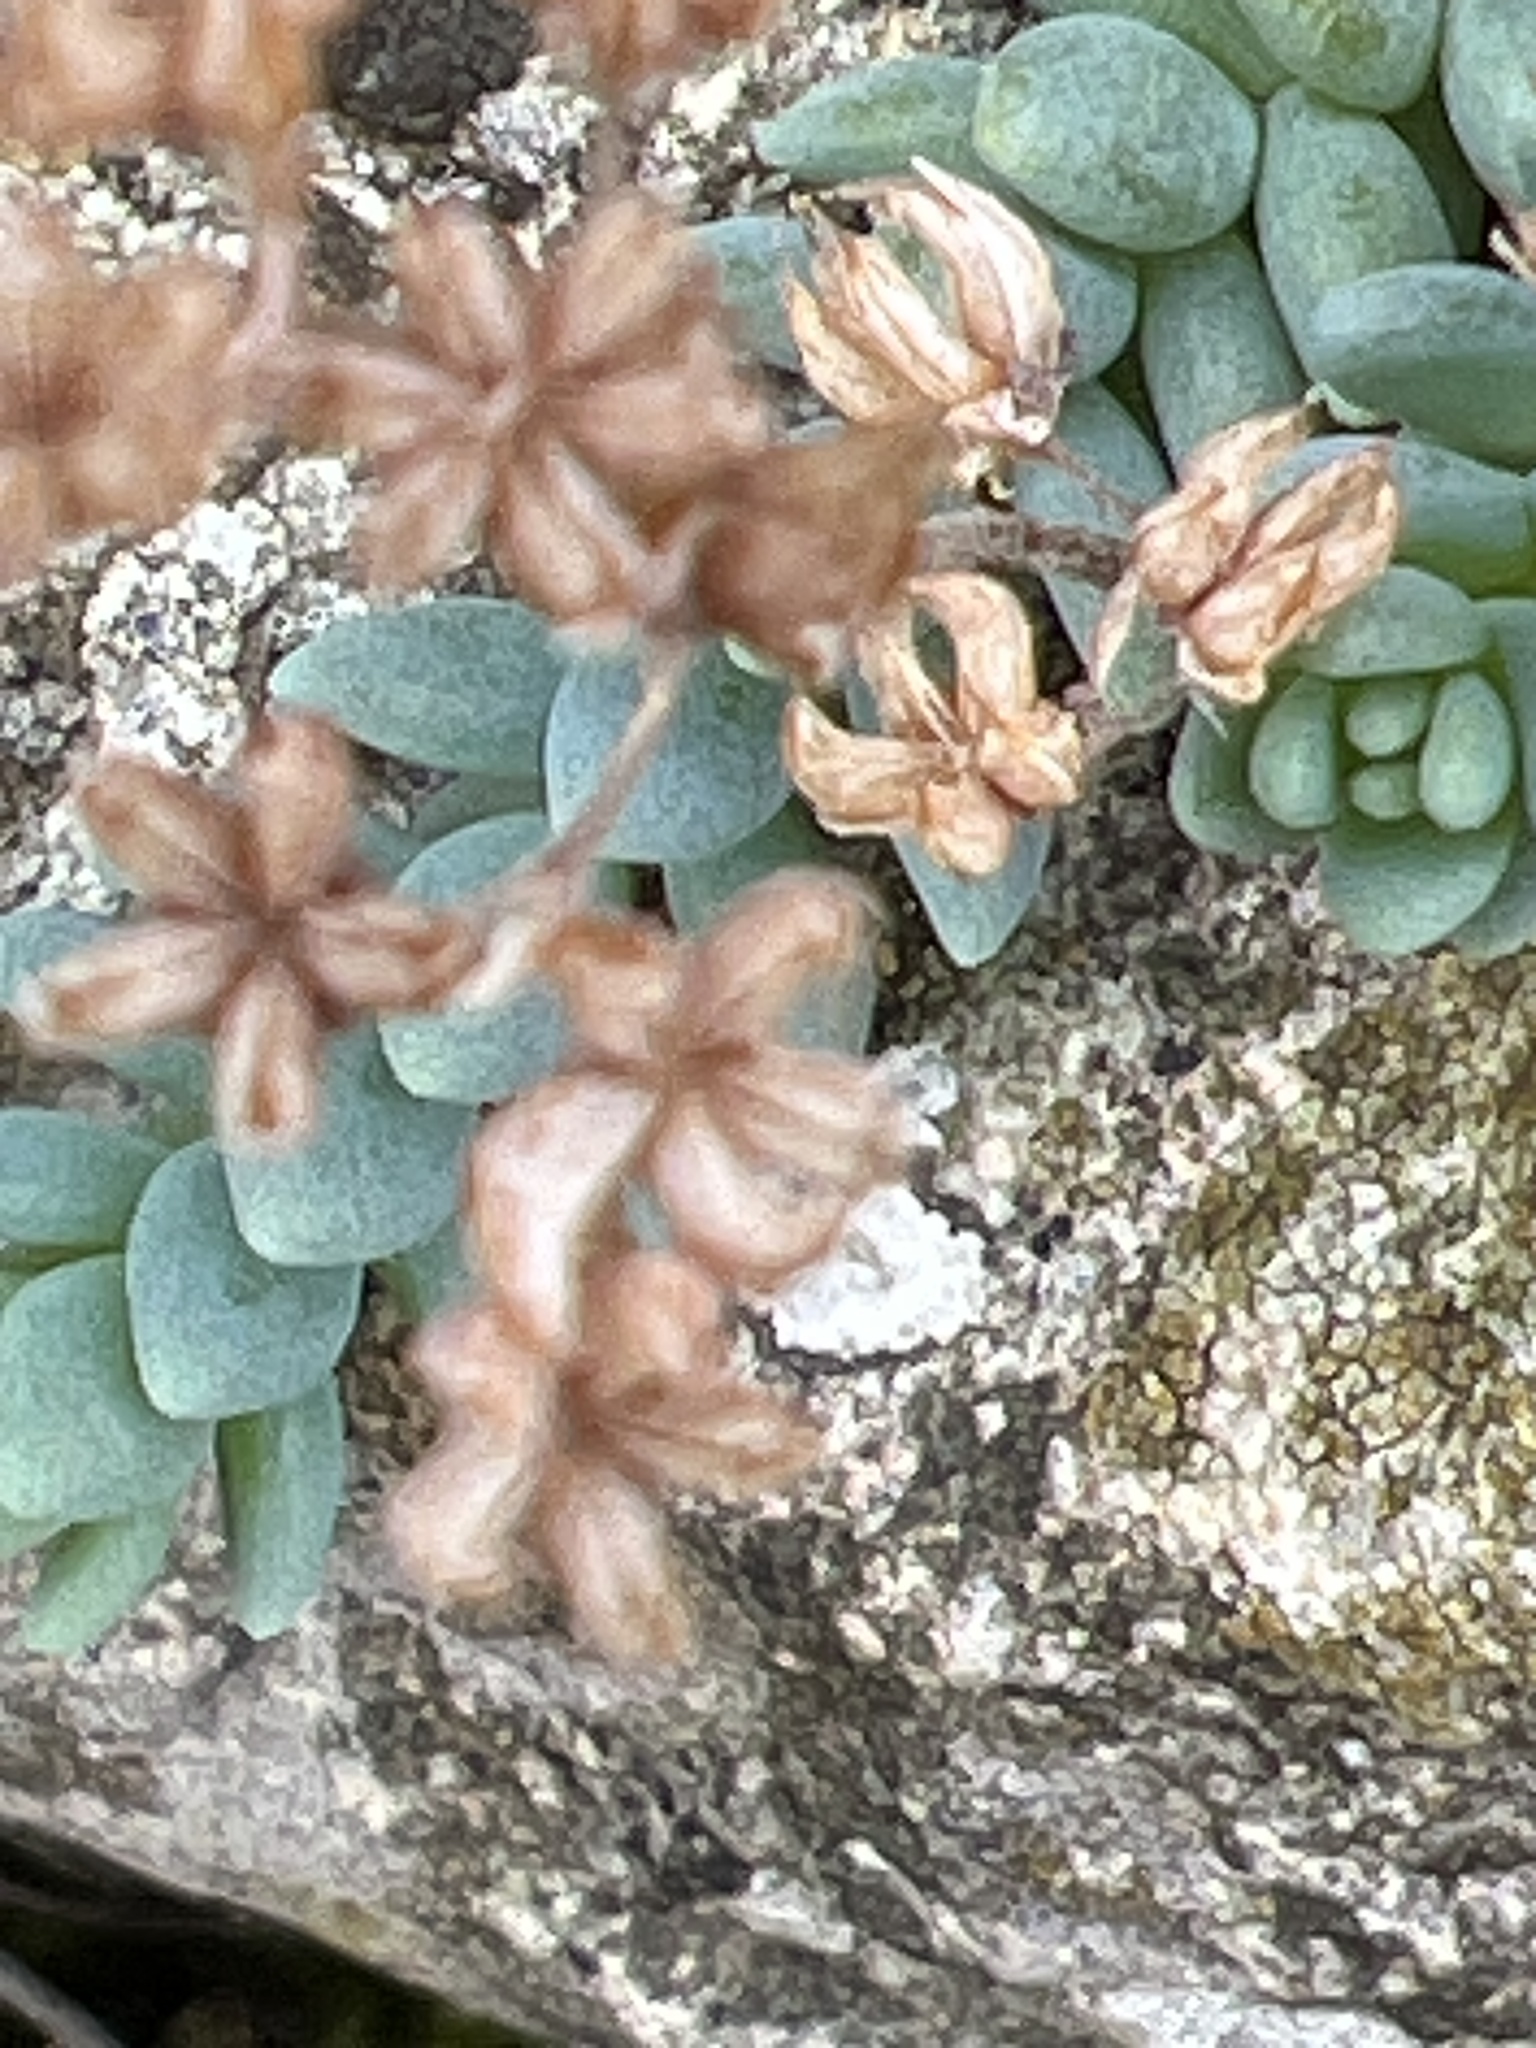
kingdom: Plantae
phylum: Tracheophyta
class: Magnoliopsida
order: Saxifragales
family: Crassulaceae
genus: Sedum
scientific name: Sedum dasyphyllum
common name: Thick-leaf stonecrop
